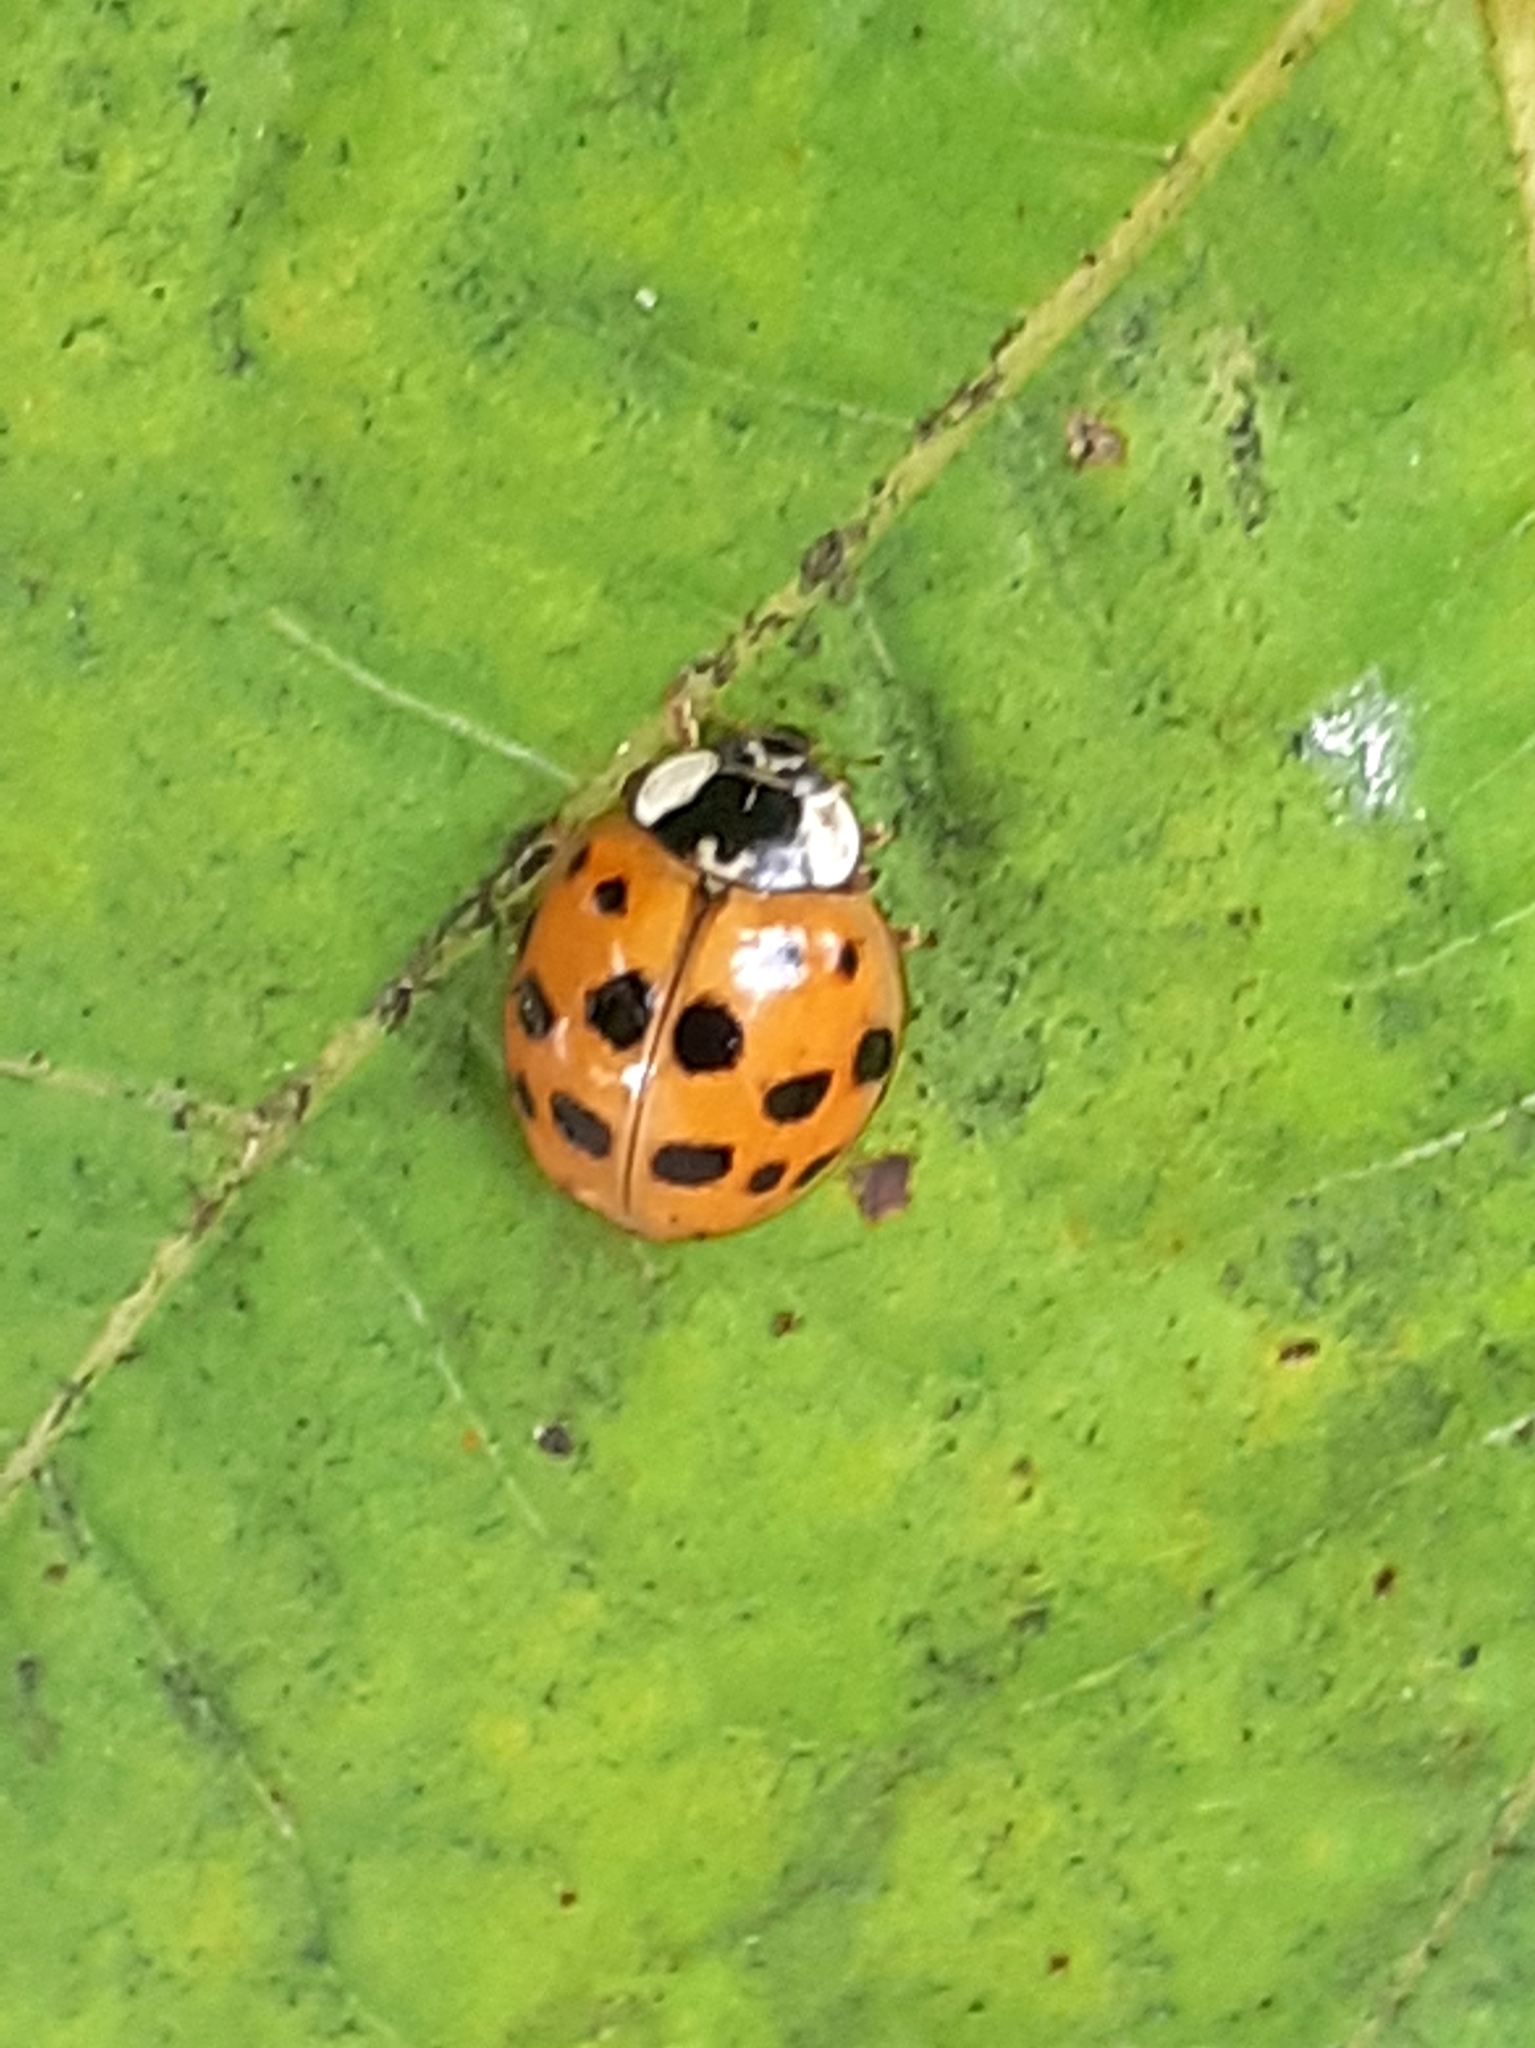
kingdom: Animalia
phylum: Arthropoda
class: Insecta
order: Coleoptera
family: Coccinellidae
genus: Harmonia
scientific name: Harmonia axyridis
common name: Harlequin ladybird
